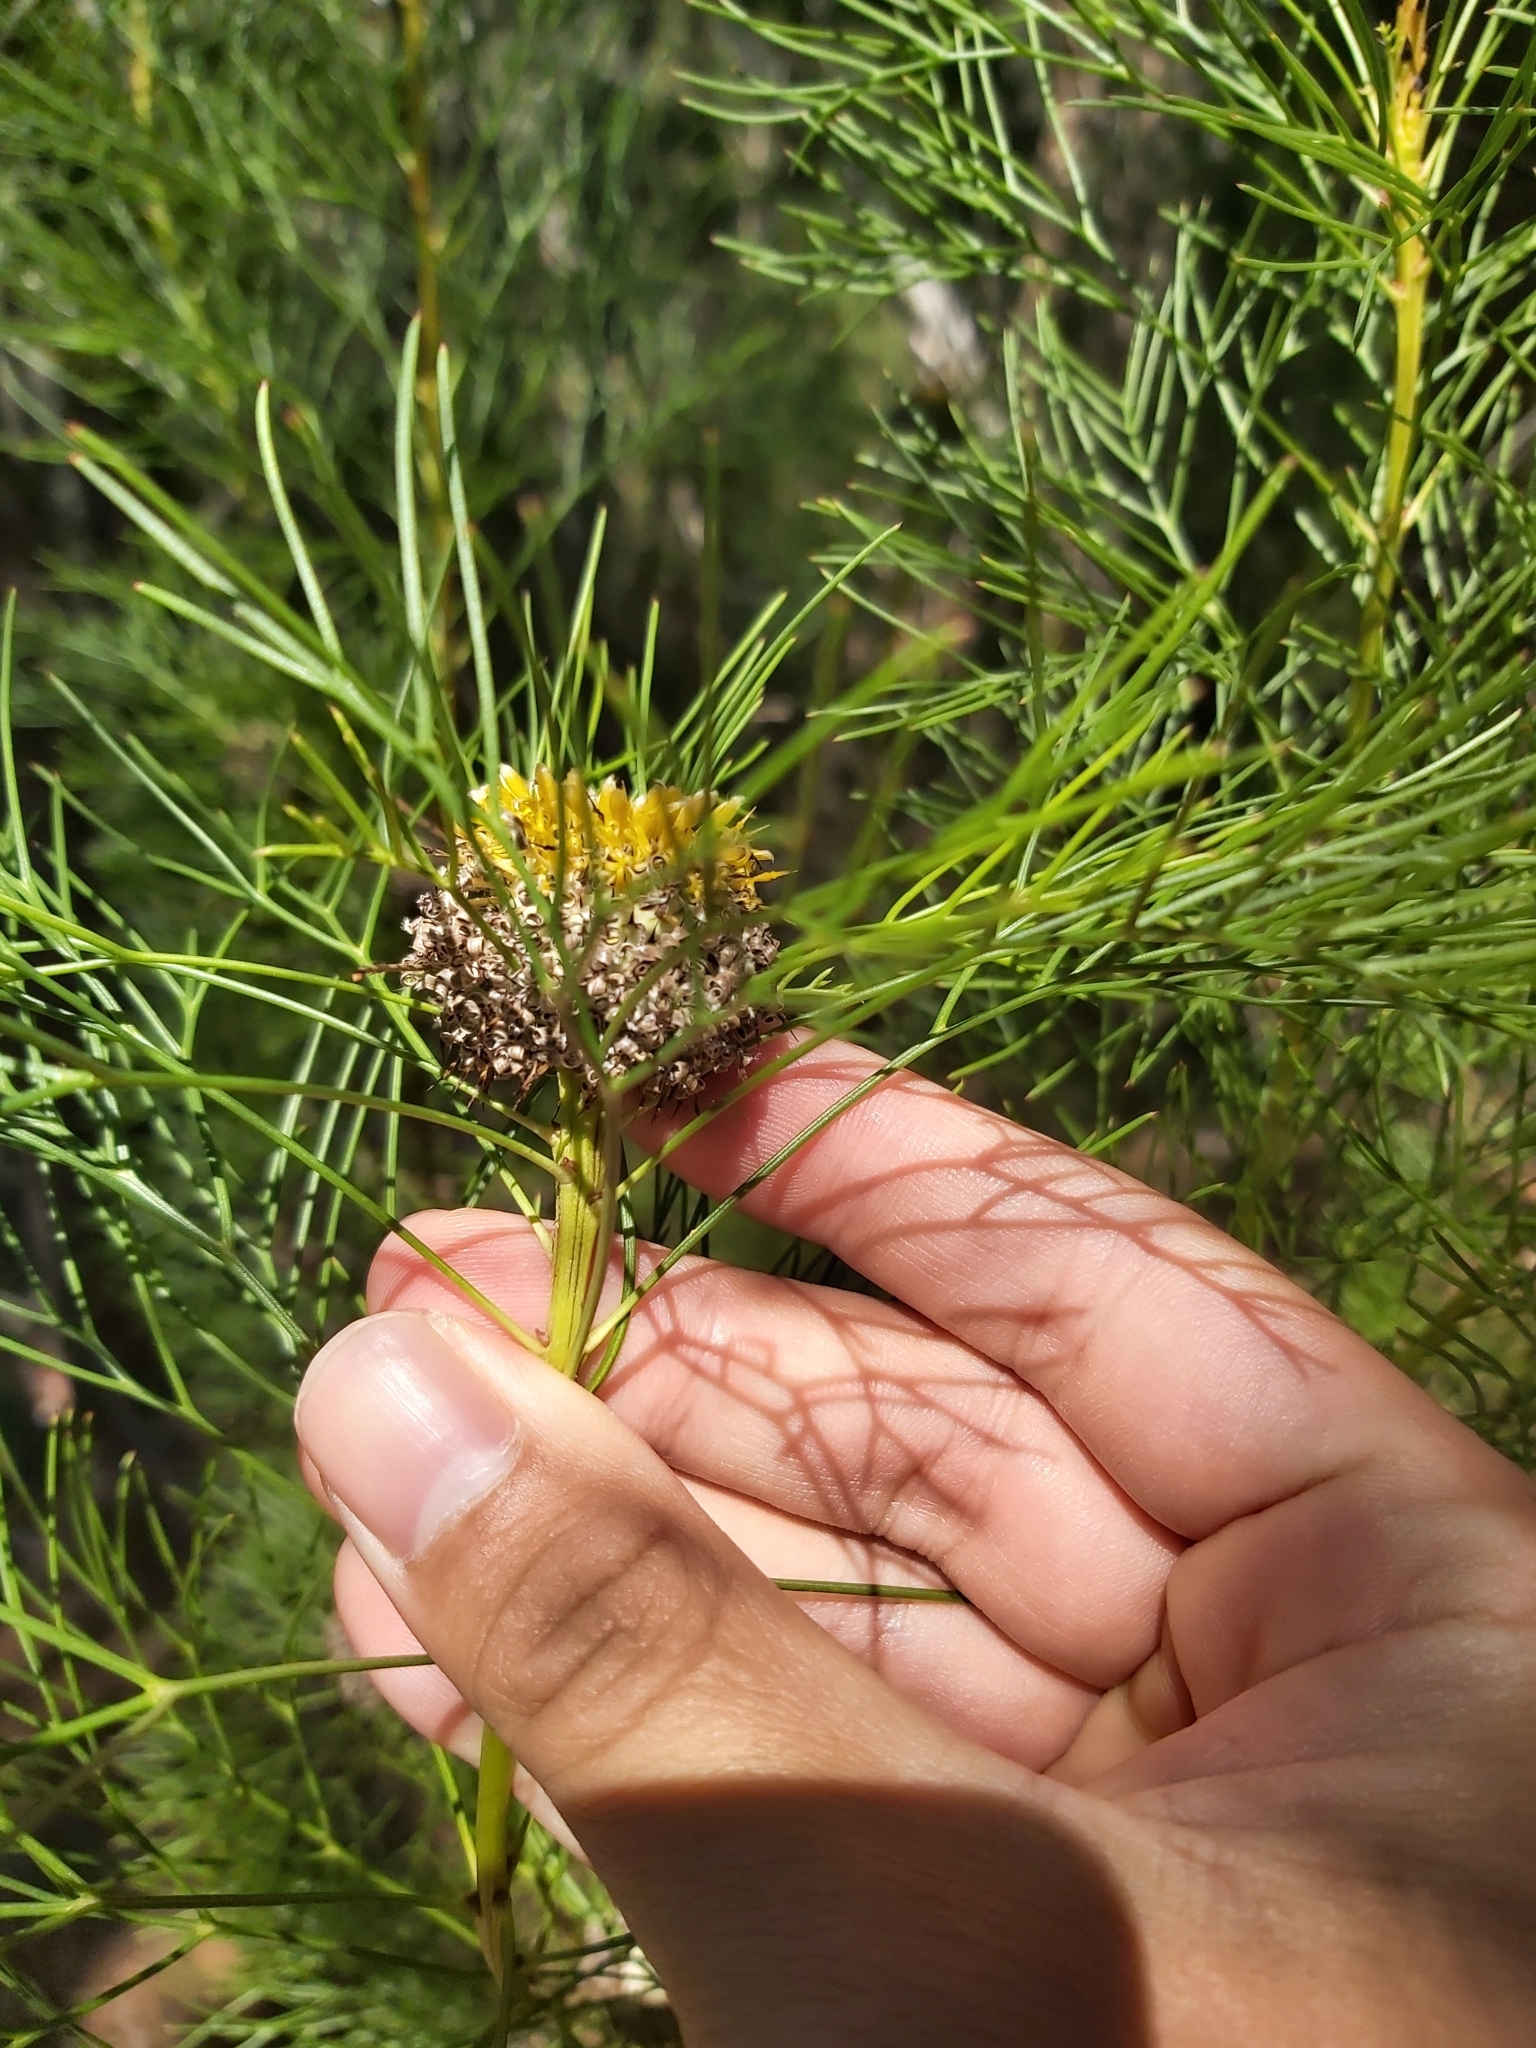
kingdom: Plantae
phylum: Tracheophyta
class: Magnoliopsida
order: Proteales
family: Proteaceae
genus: Isopogon
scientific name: Isopogon anethifolius
